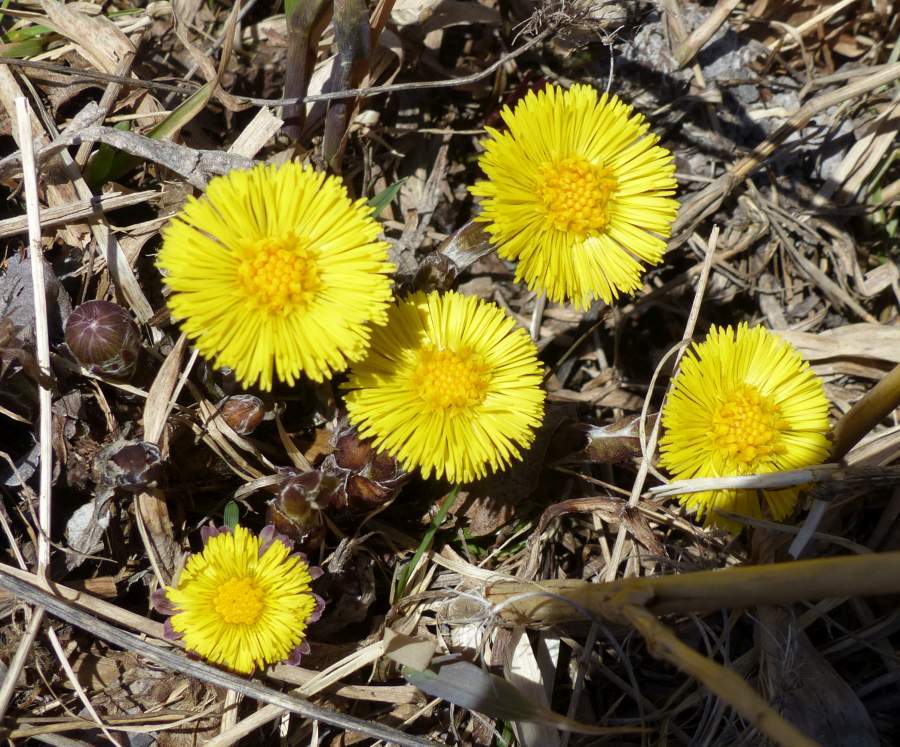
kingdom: Plantae
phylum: Tracheophyta
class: Magnoliopsida
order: Asterales
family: Asteraceae
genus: Tussilago
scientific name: Tussilago farfara
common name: Coltsfoot
